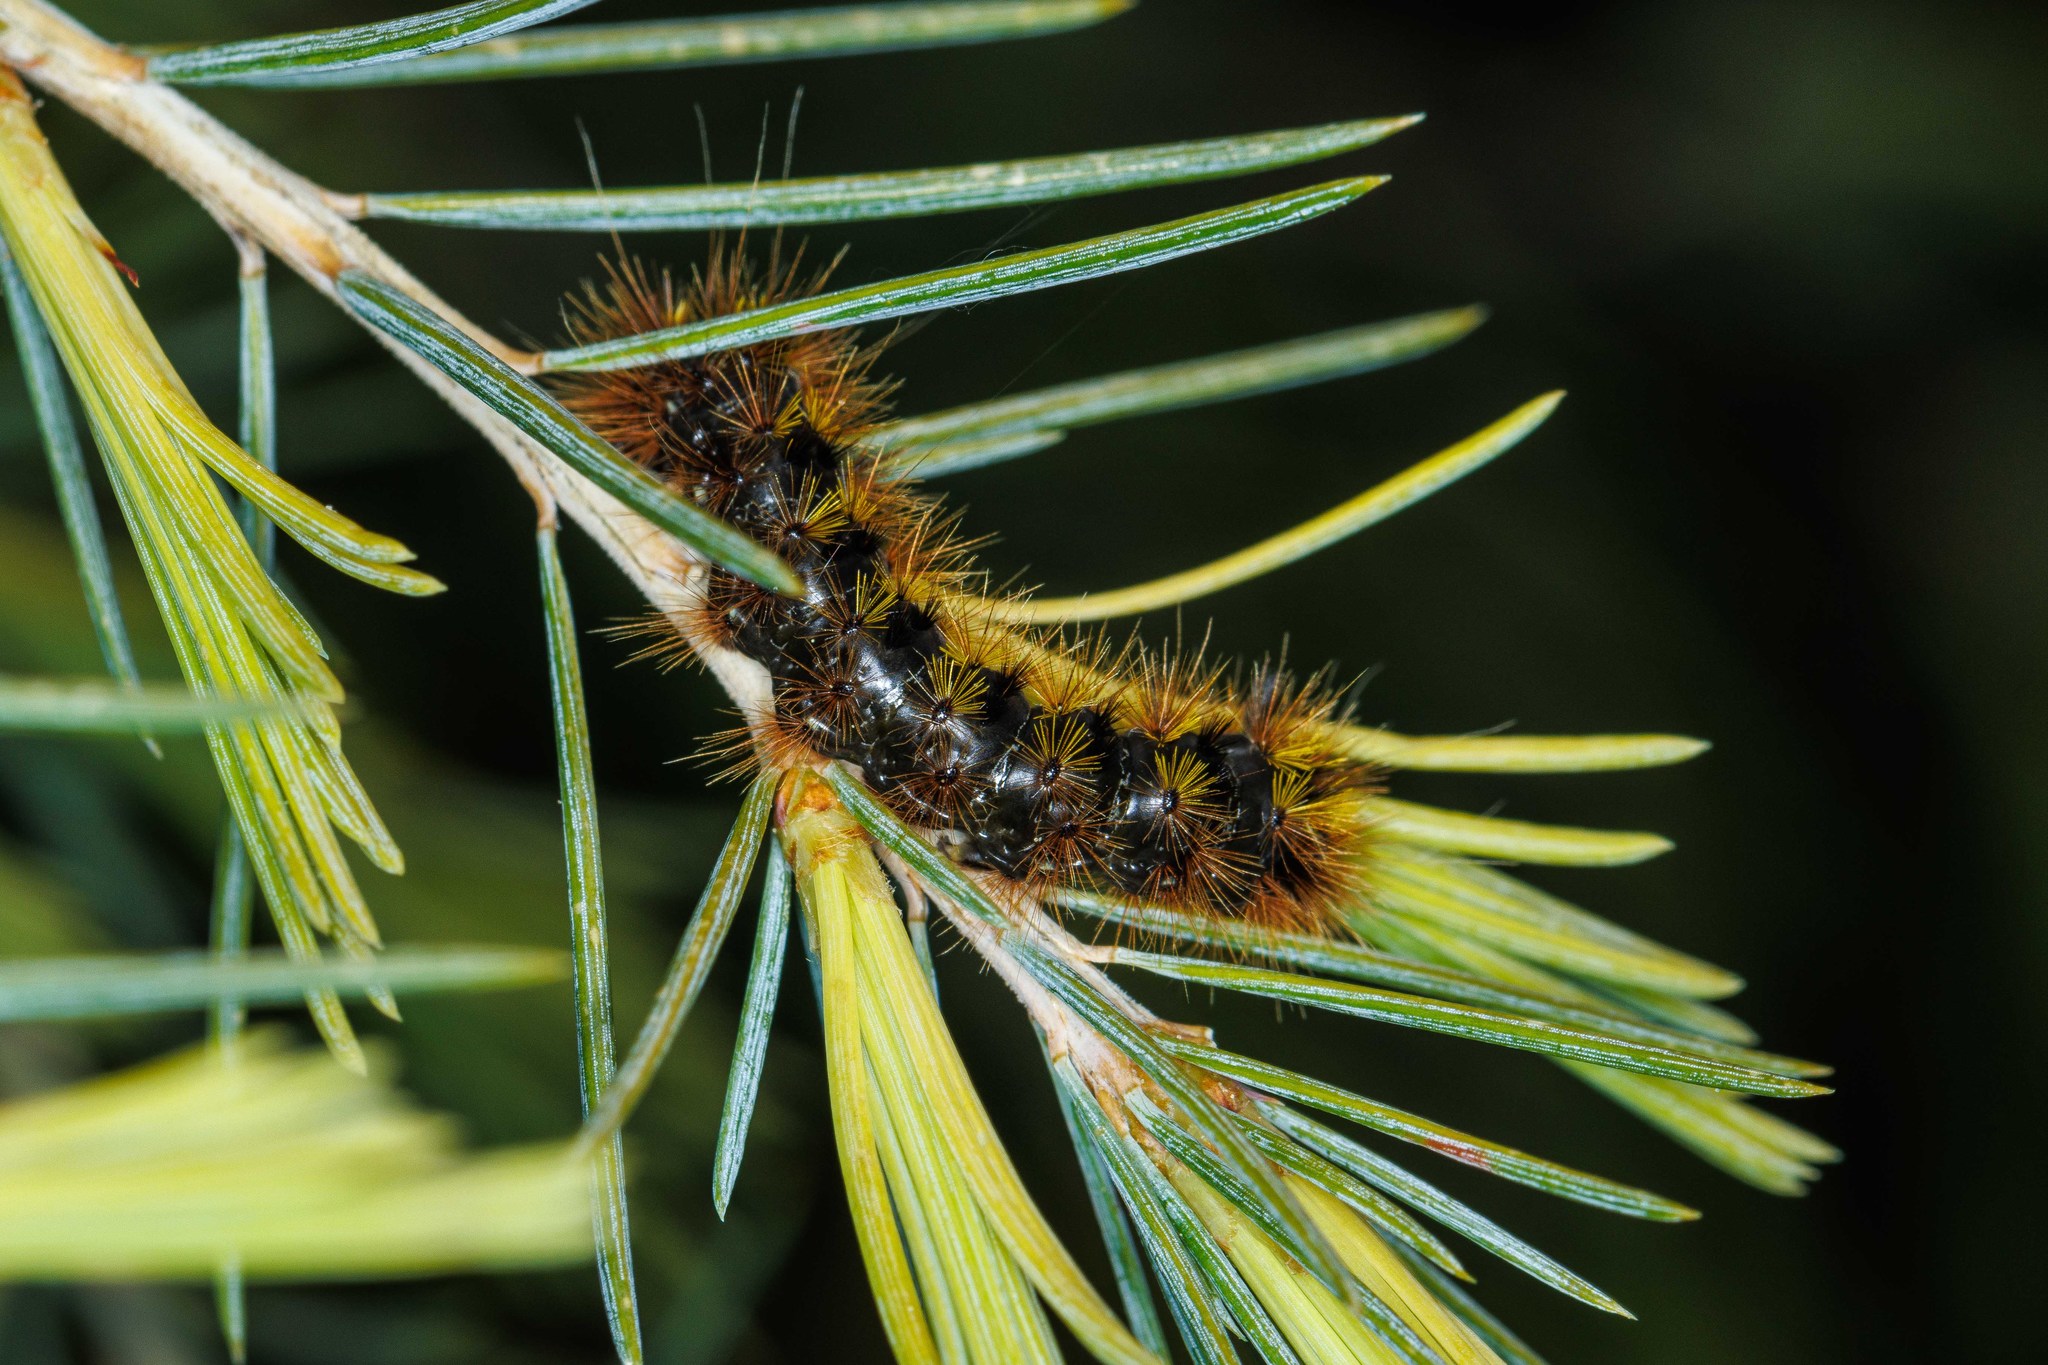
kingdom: Animalia
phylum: Arthropoda
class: Insecta
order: Lepidoptera
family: Erebidae
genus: Lophocampa
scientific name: Lophocampa argentata
